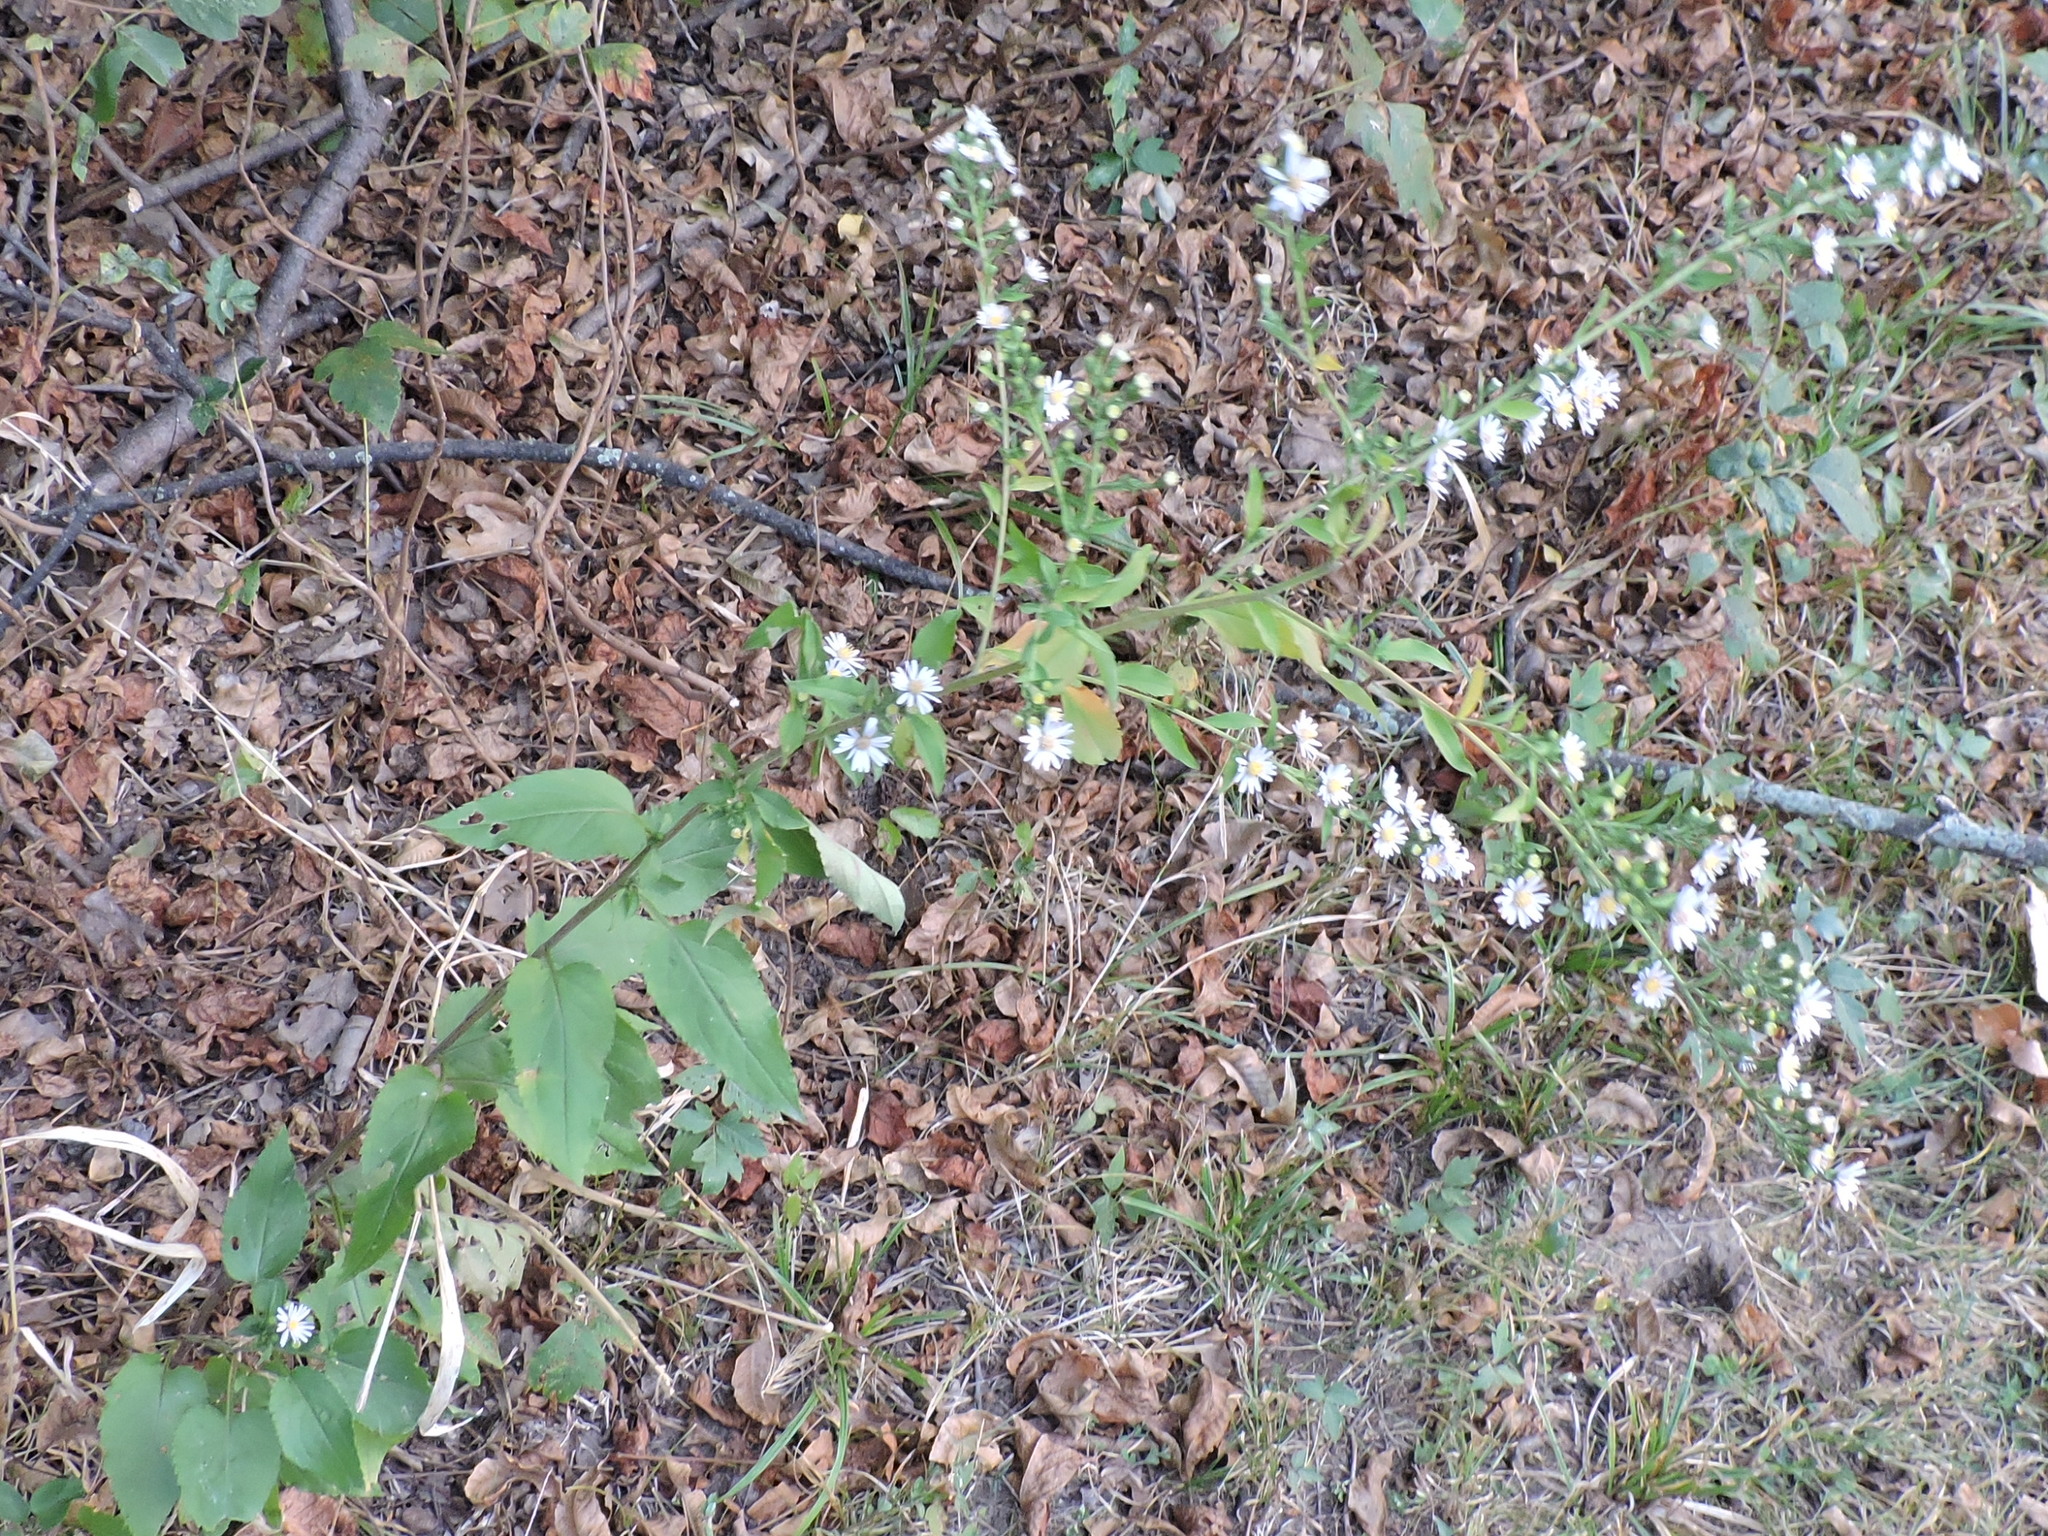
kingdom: Plantae
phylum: Tracheophyta
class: Magnoliopsida
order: Asterales
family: Asteraceae
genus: Symphyotrichum
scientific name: Symphyotrichum drummondii
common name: Drummond's aster
